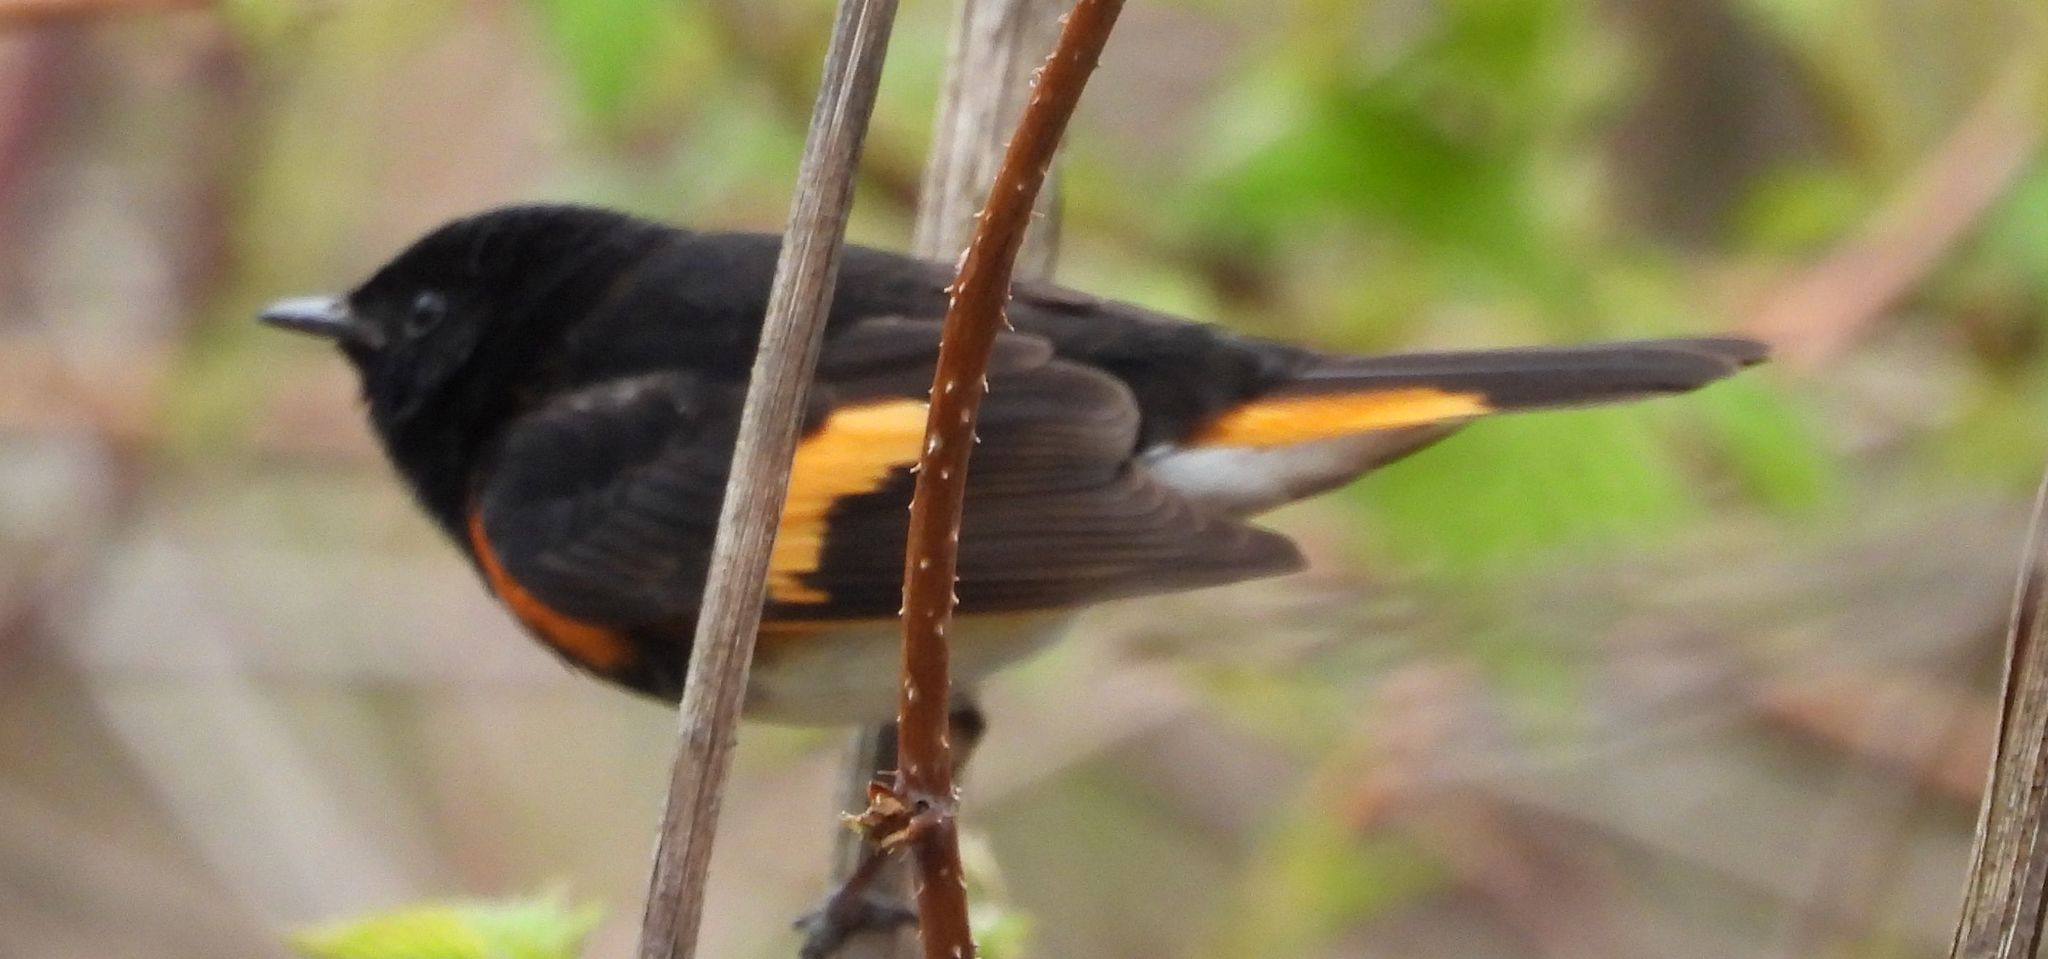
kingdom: Animalia
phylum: Chordata
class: Aves
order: Passeriformes
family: Parulidae
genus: Setophaga
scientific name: Setophaga ruticilla
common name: American redstart
